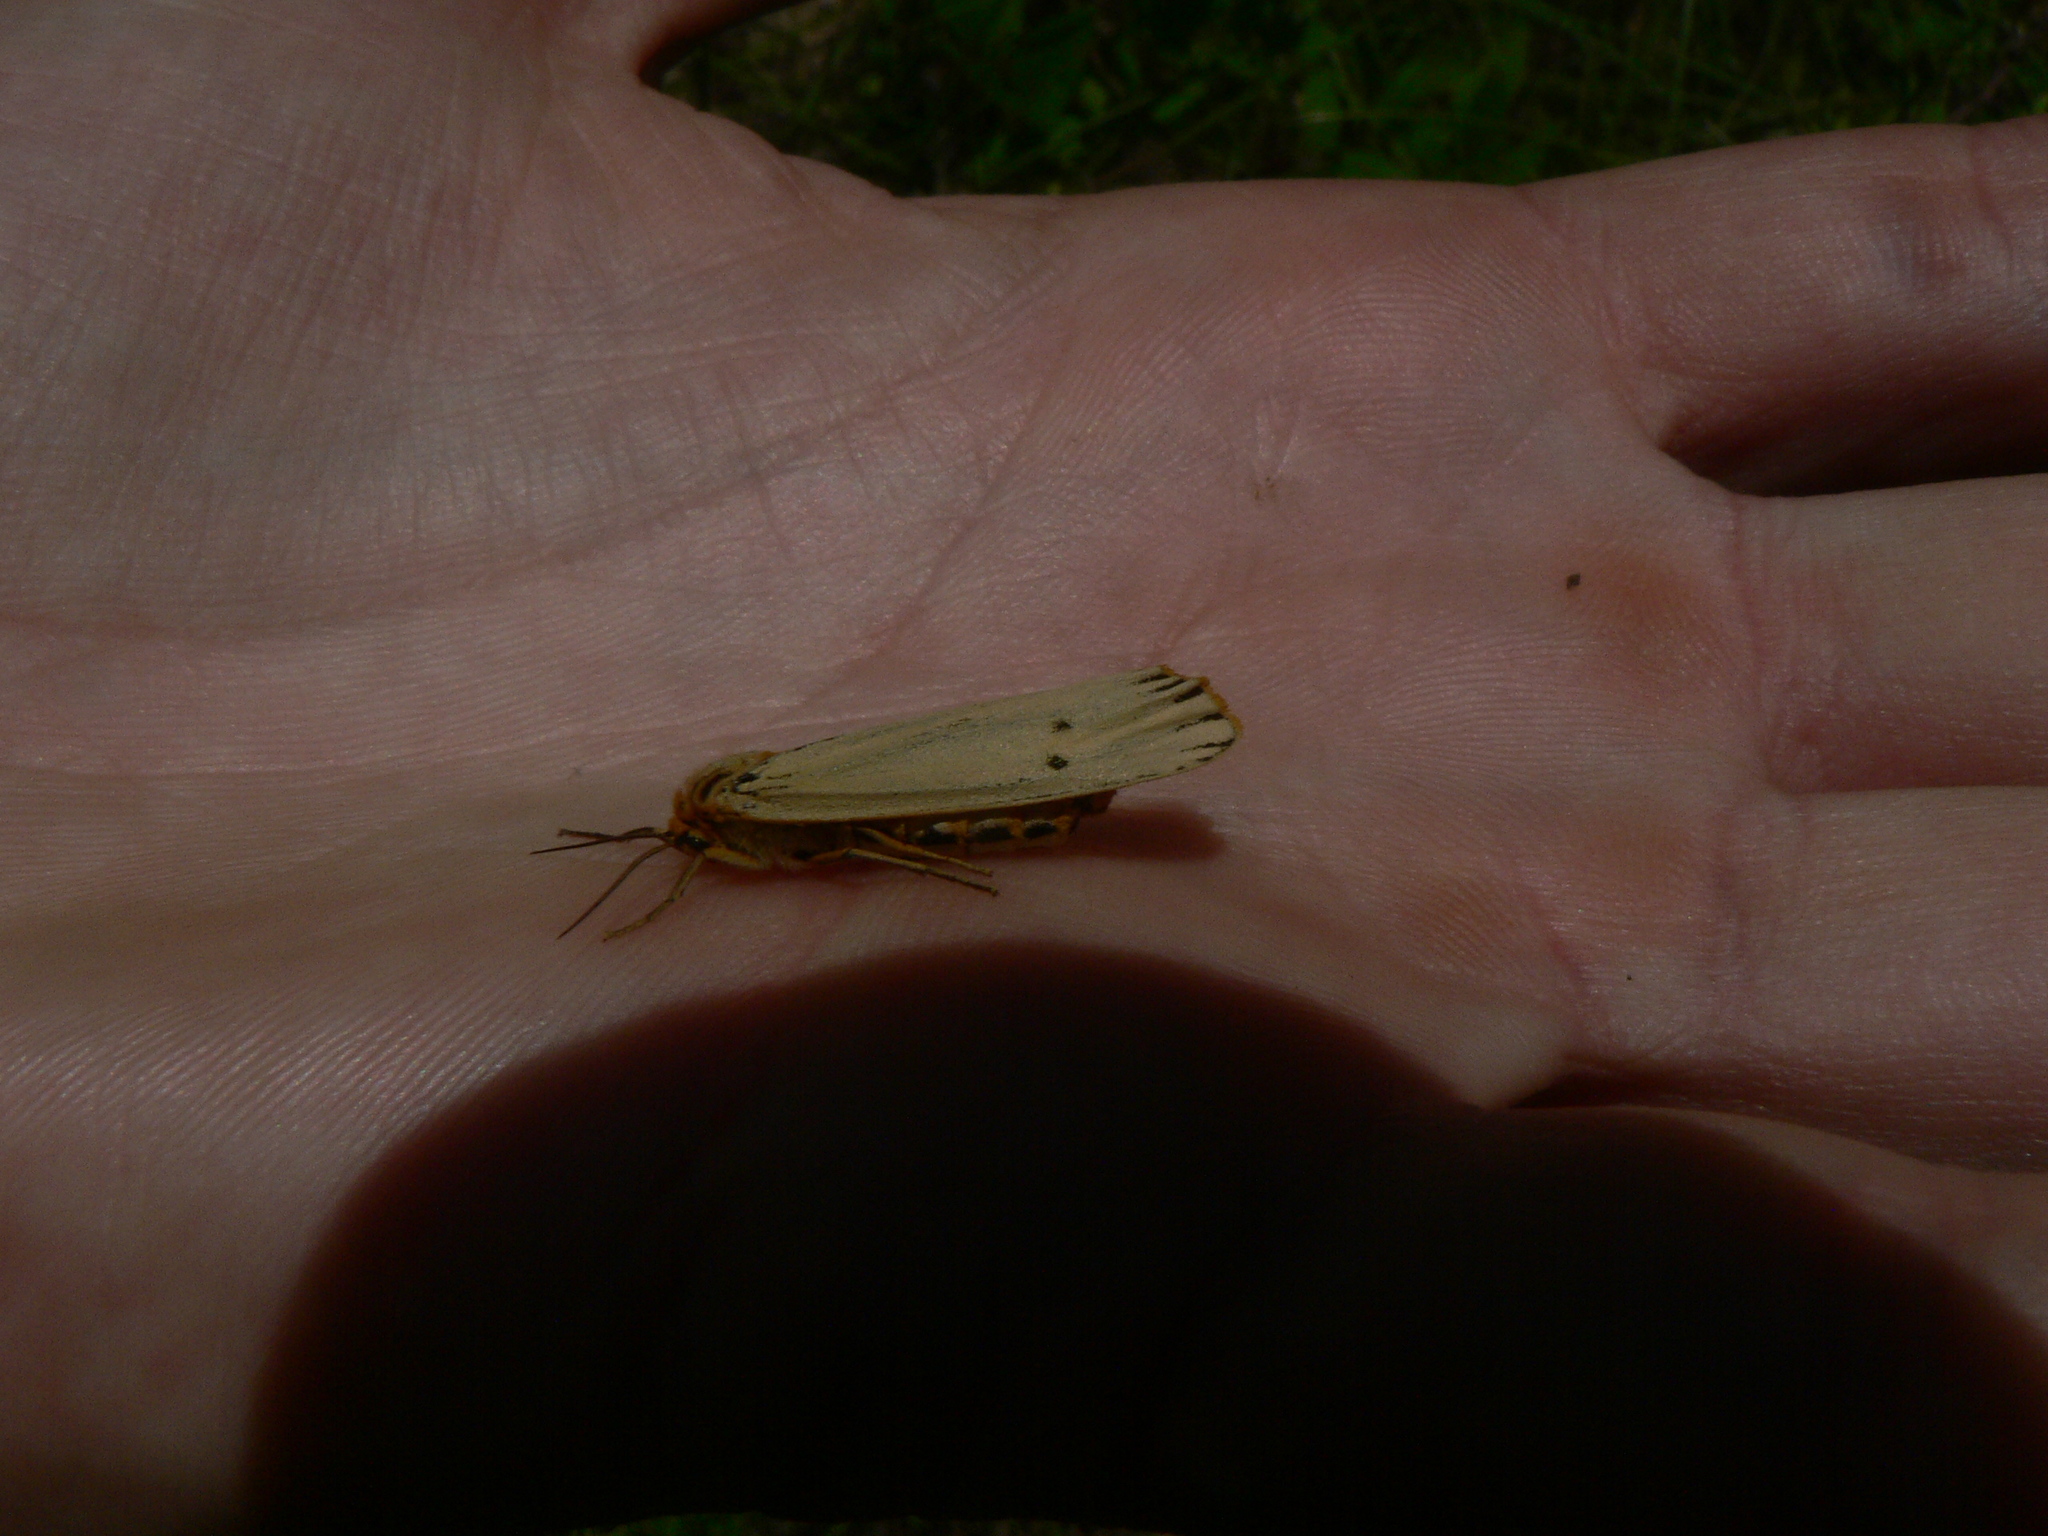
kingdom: Animalia
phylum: Arthropoda
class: Insecta
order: Lepidoptera
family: Erebidae
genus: Coscinia
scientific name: Coscinia Spiris striata
